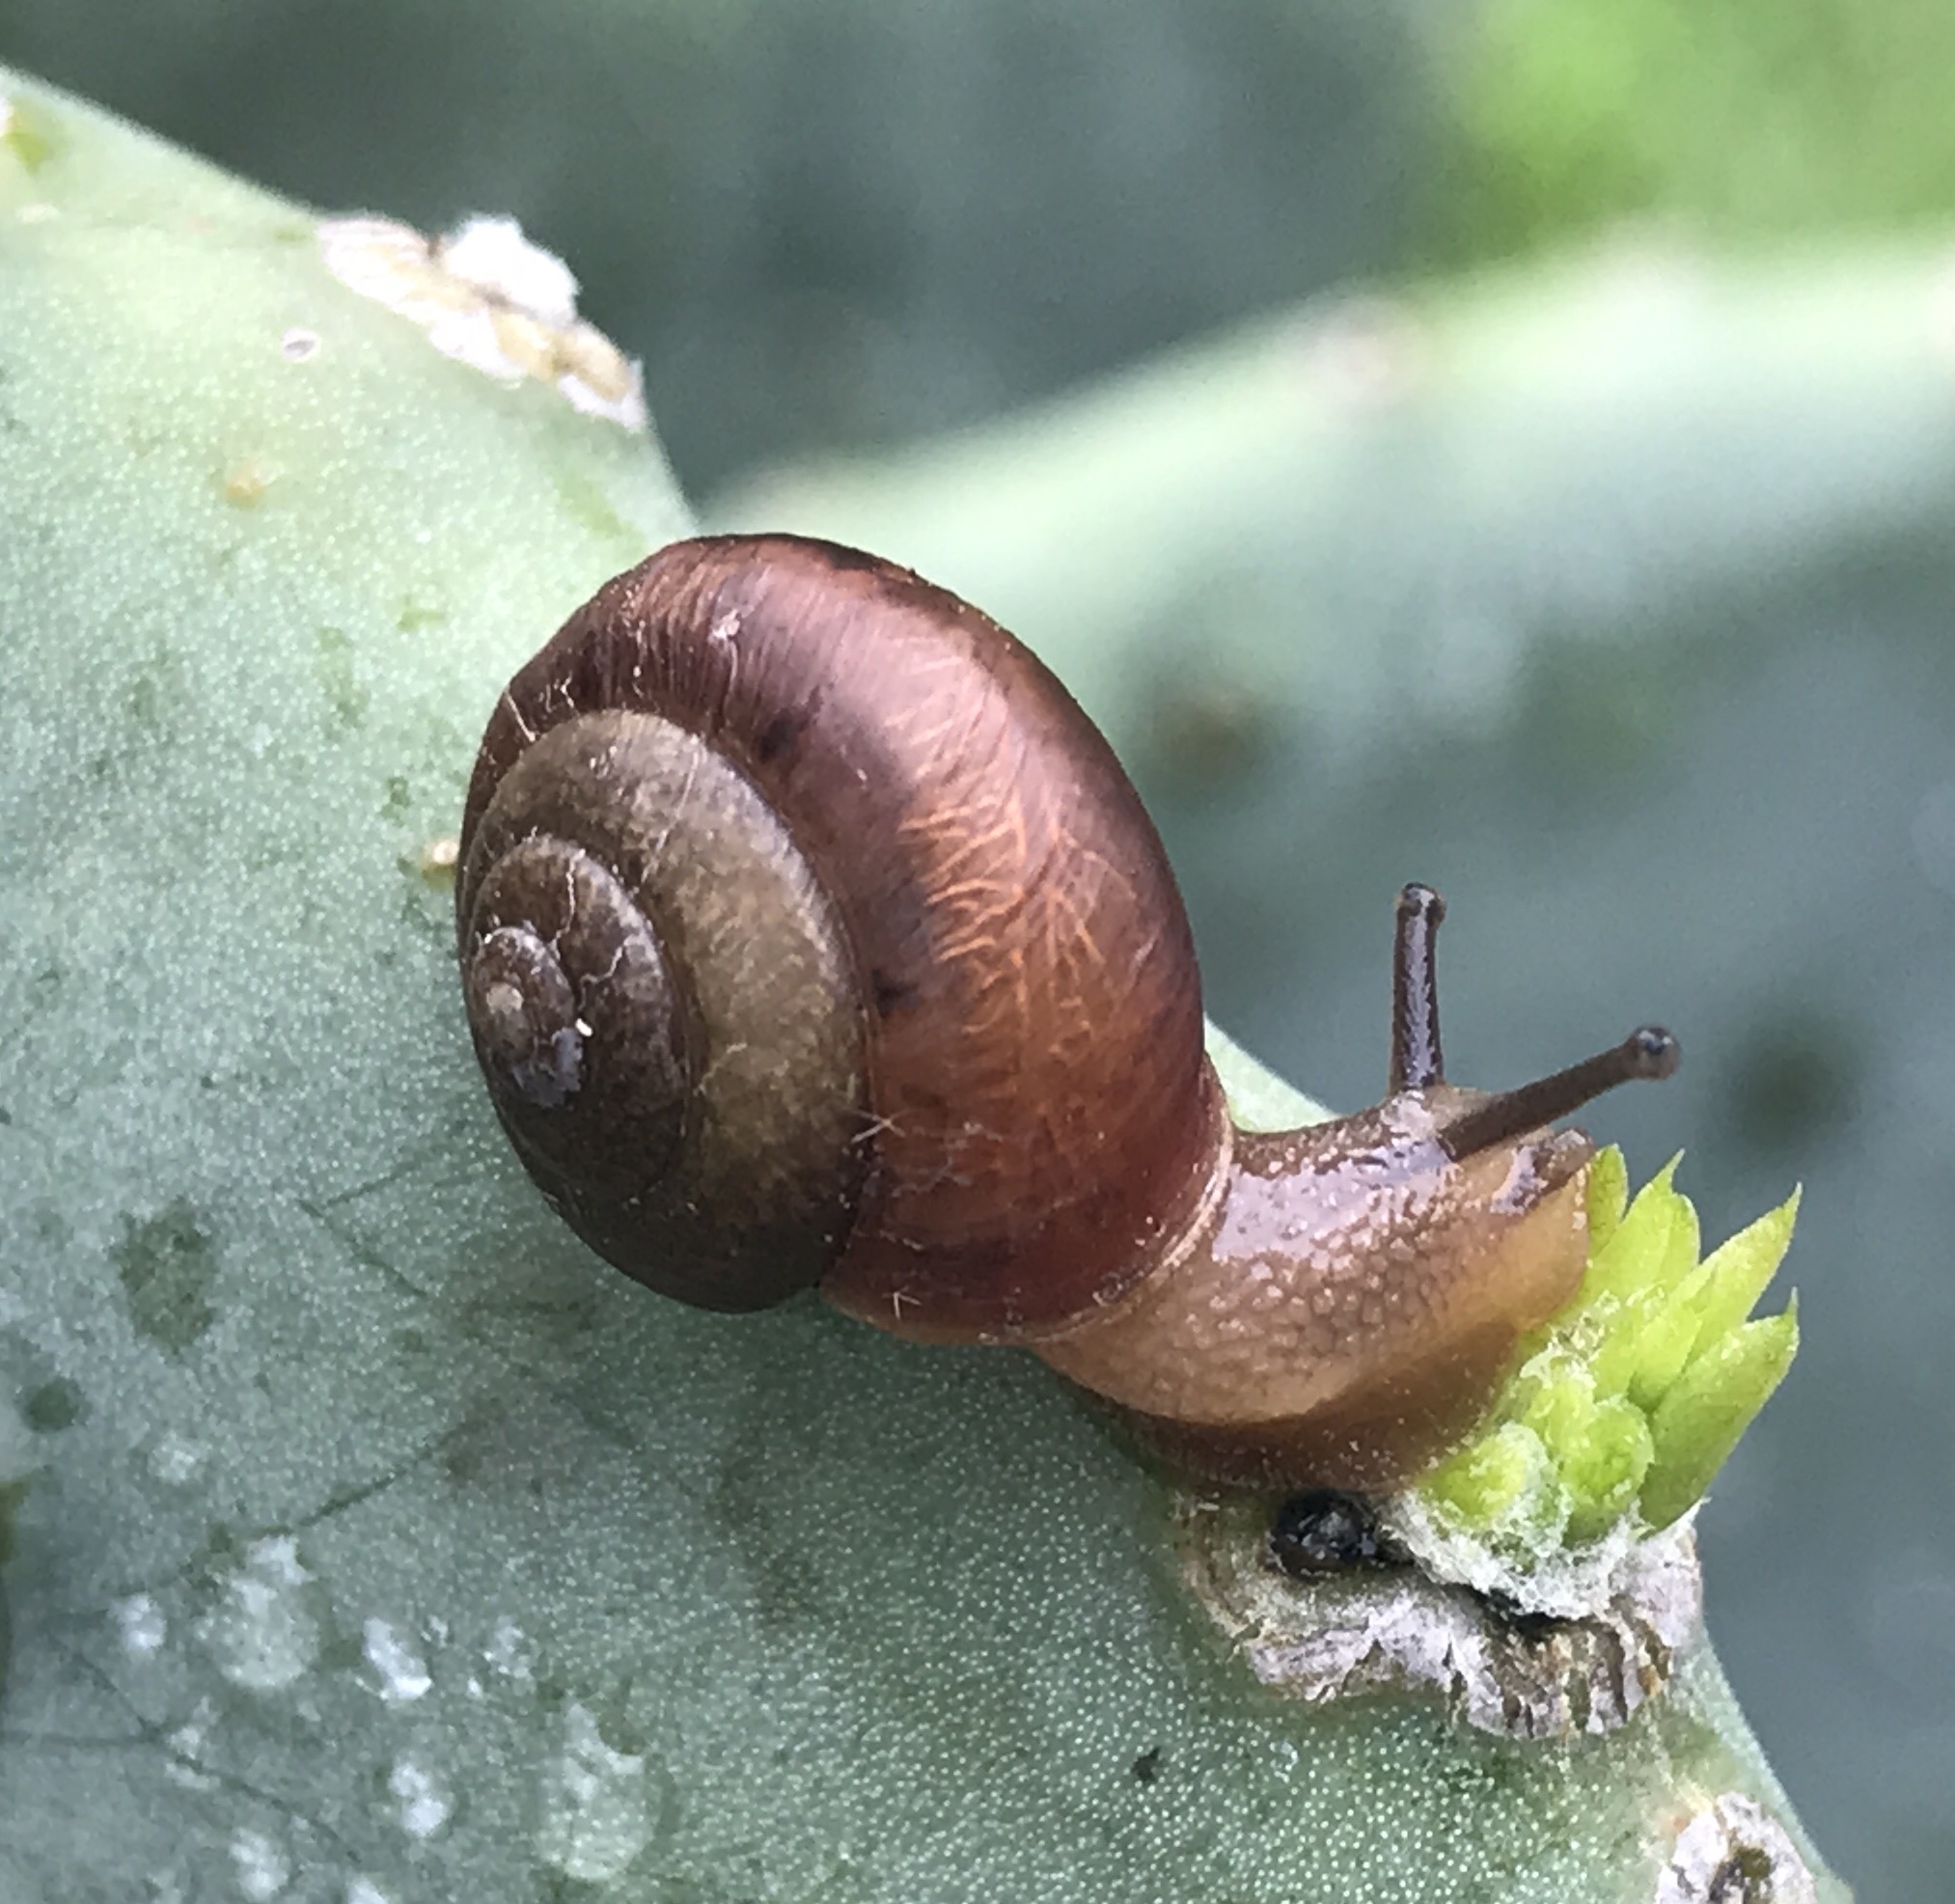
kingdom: Animalia
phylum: Mollusca
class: Gastropoda
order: Stylommatophora
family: Camaenidae
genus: Bradybaena
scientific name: Bradybaena similaris
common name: Asian trampsnail
